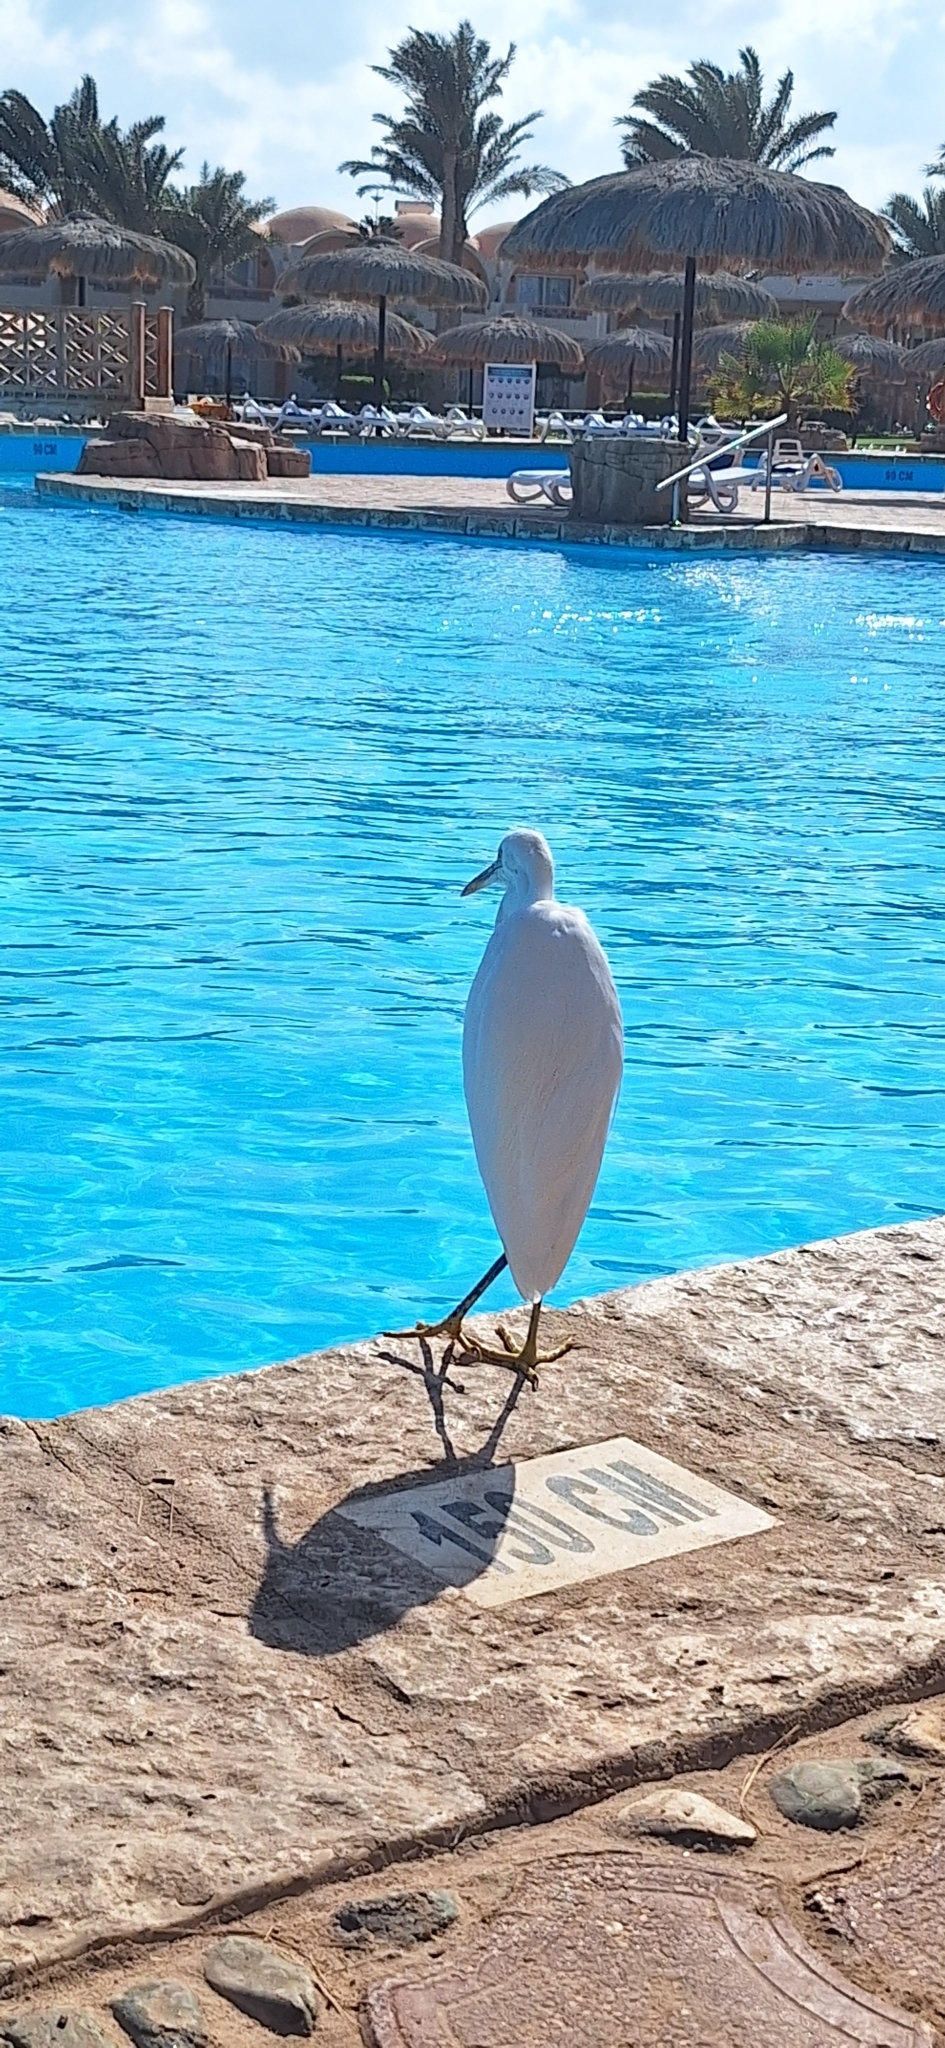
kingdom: Animalia
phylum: Chordata
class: Aves
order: Pelecaniformes
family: Ardeidae
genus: Egretta
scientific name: Egretta gularis
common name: Western reef-heron
